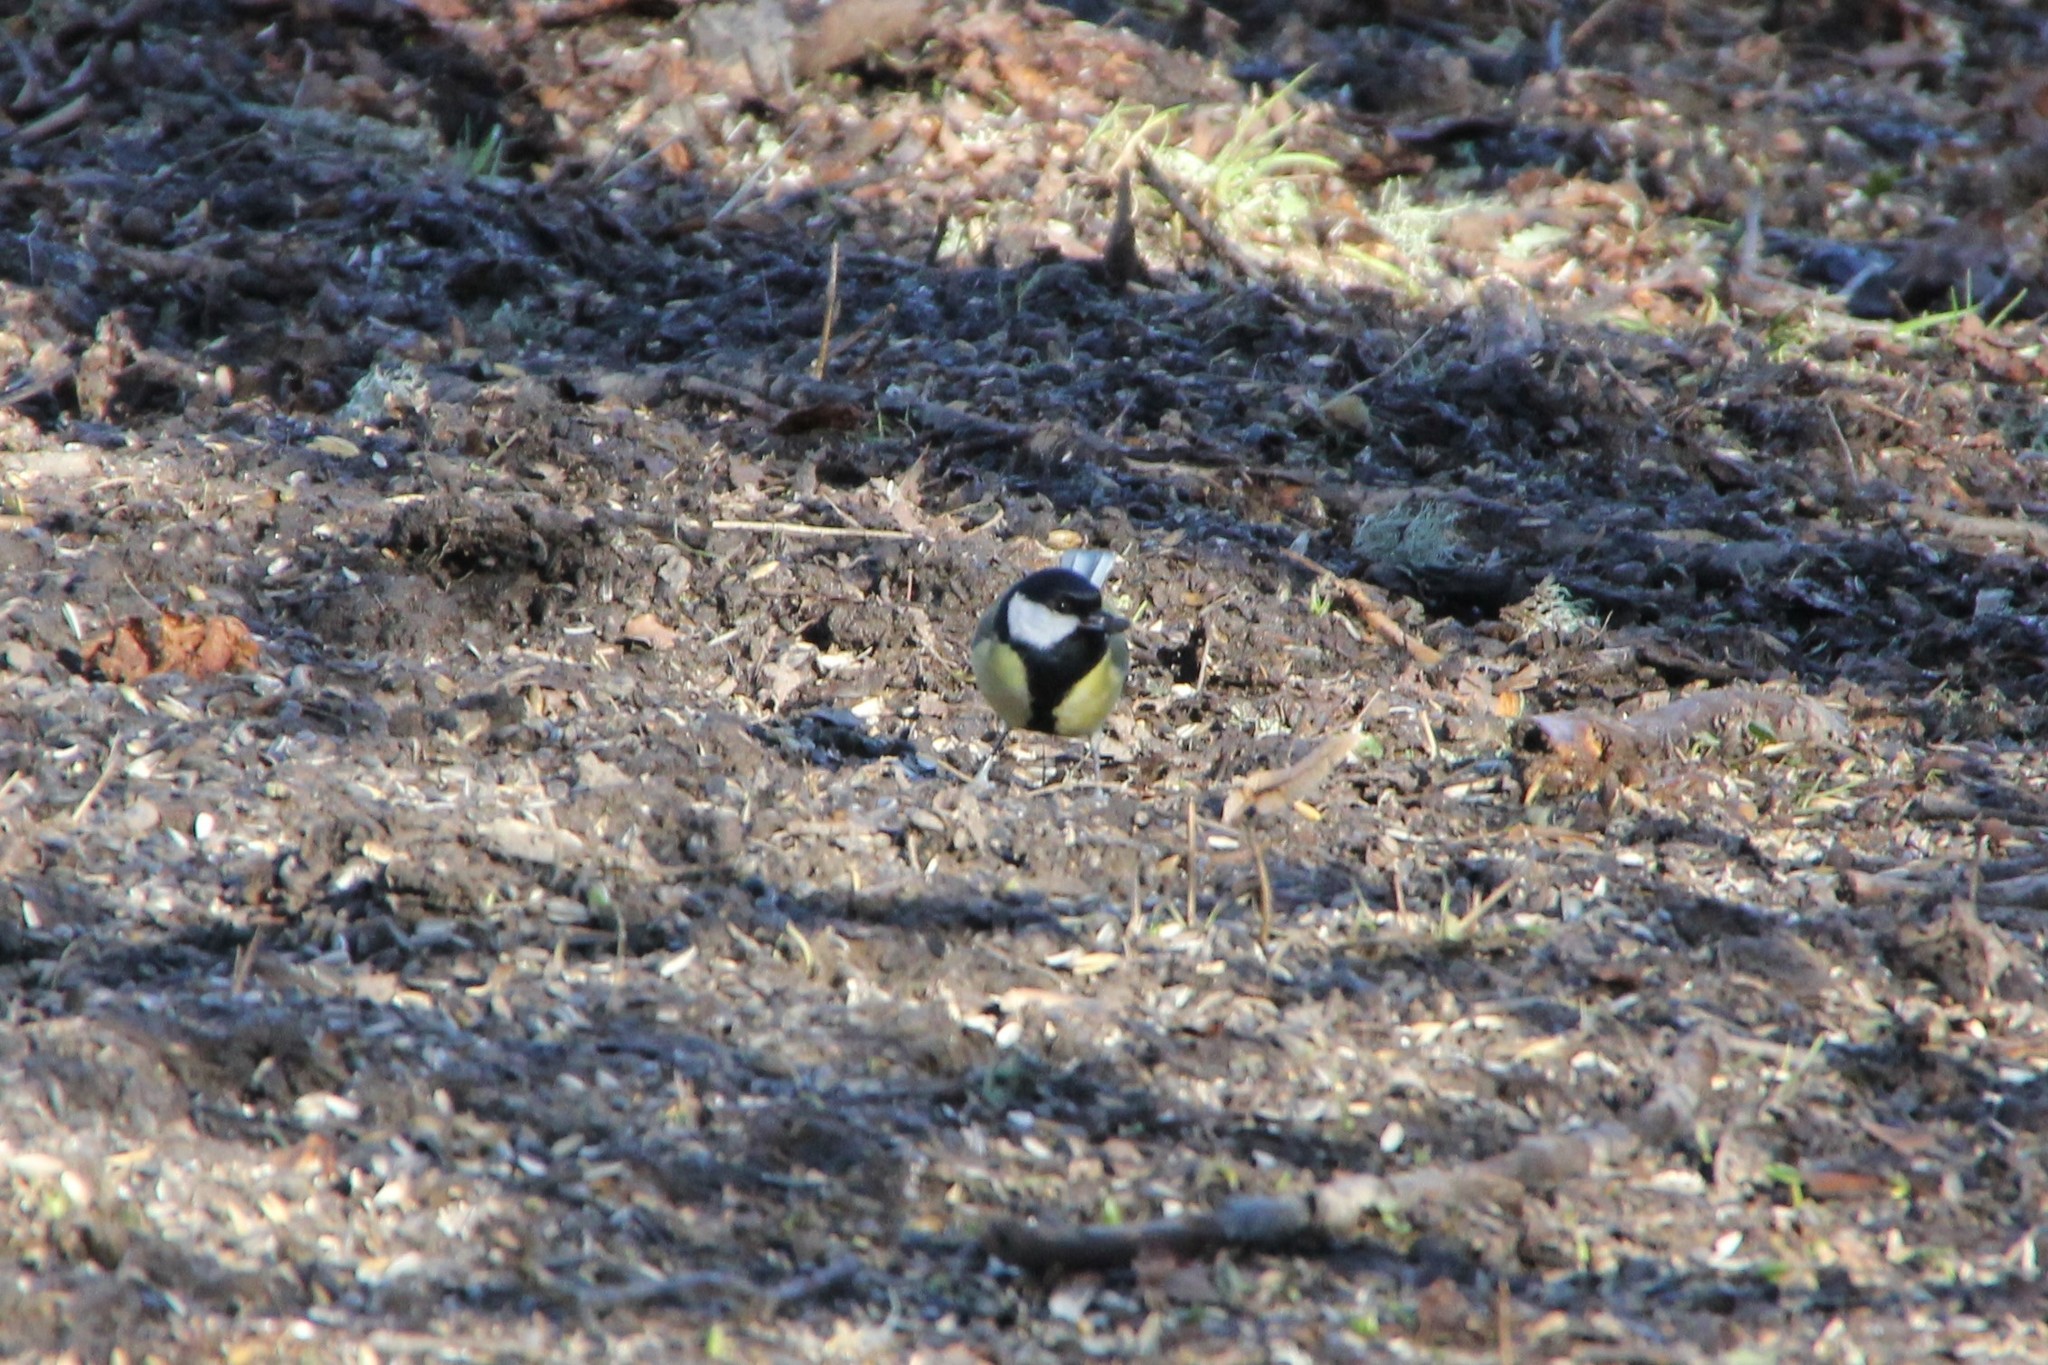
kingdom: Animalia
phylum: Chordata
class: Aves
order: Passeriformes
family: Paridae
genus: Parus
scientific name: Parus major
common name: Great tit
